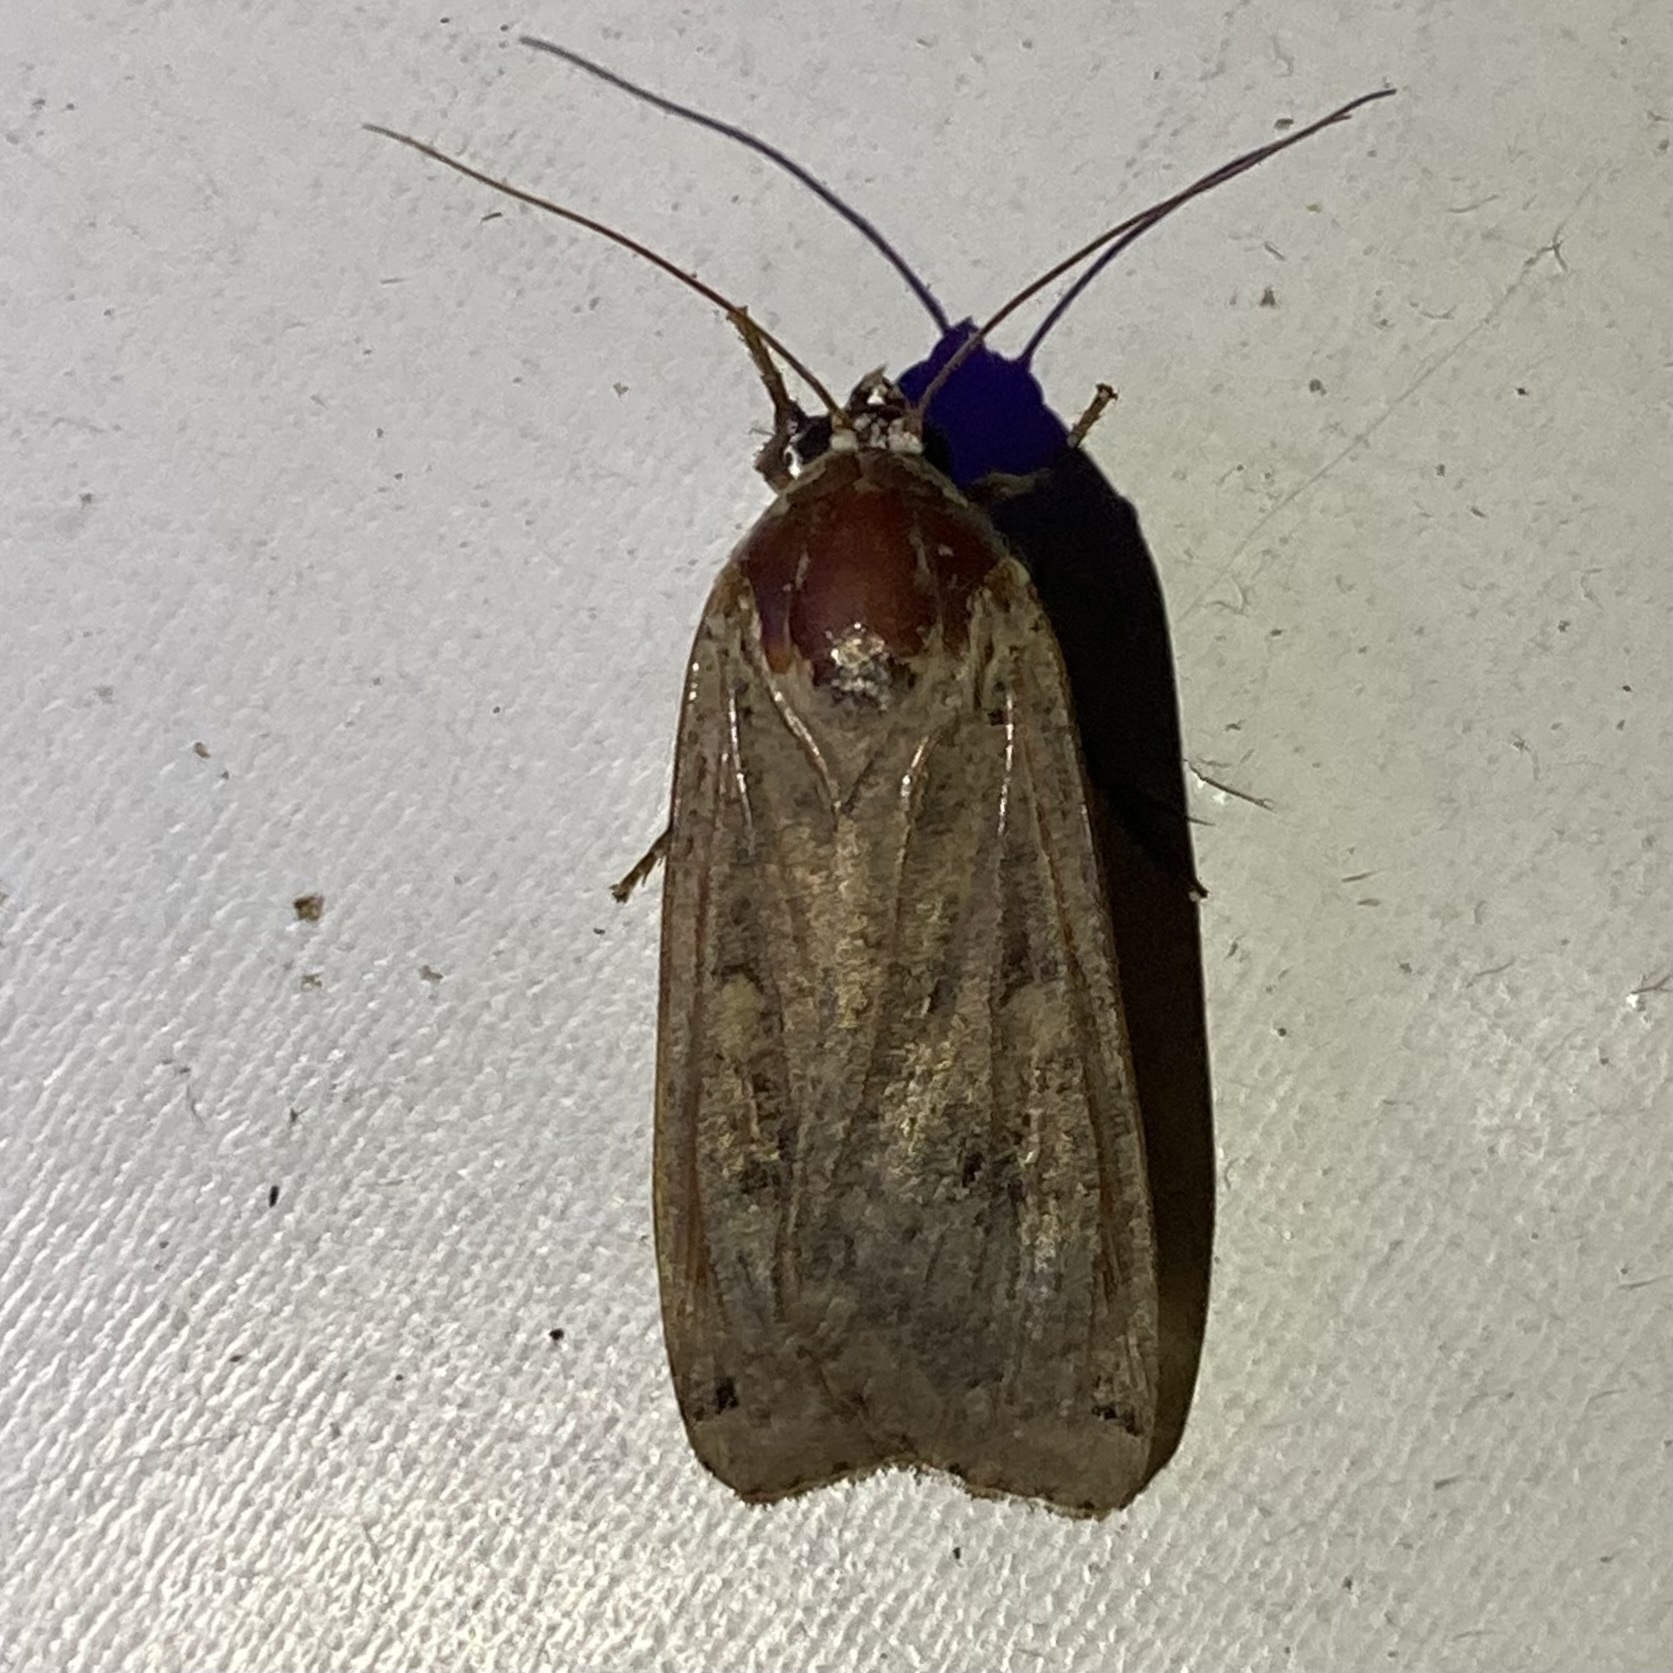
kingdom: Animalia
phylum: Arthropoda
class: Insecta
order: Lepidoptera
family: Noctuidae
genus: Noctua
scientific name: Noctua pronuba
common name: Large yellow underwing
